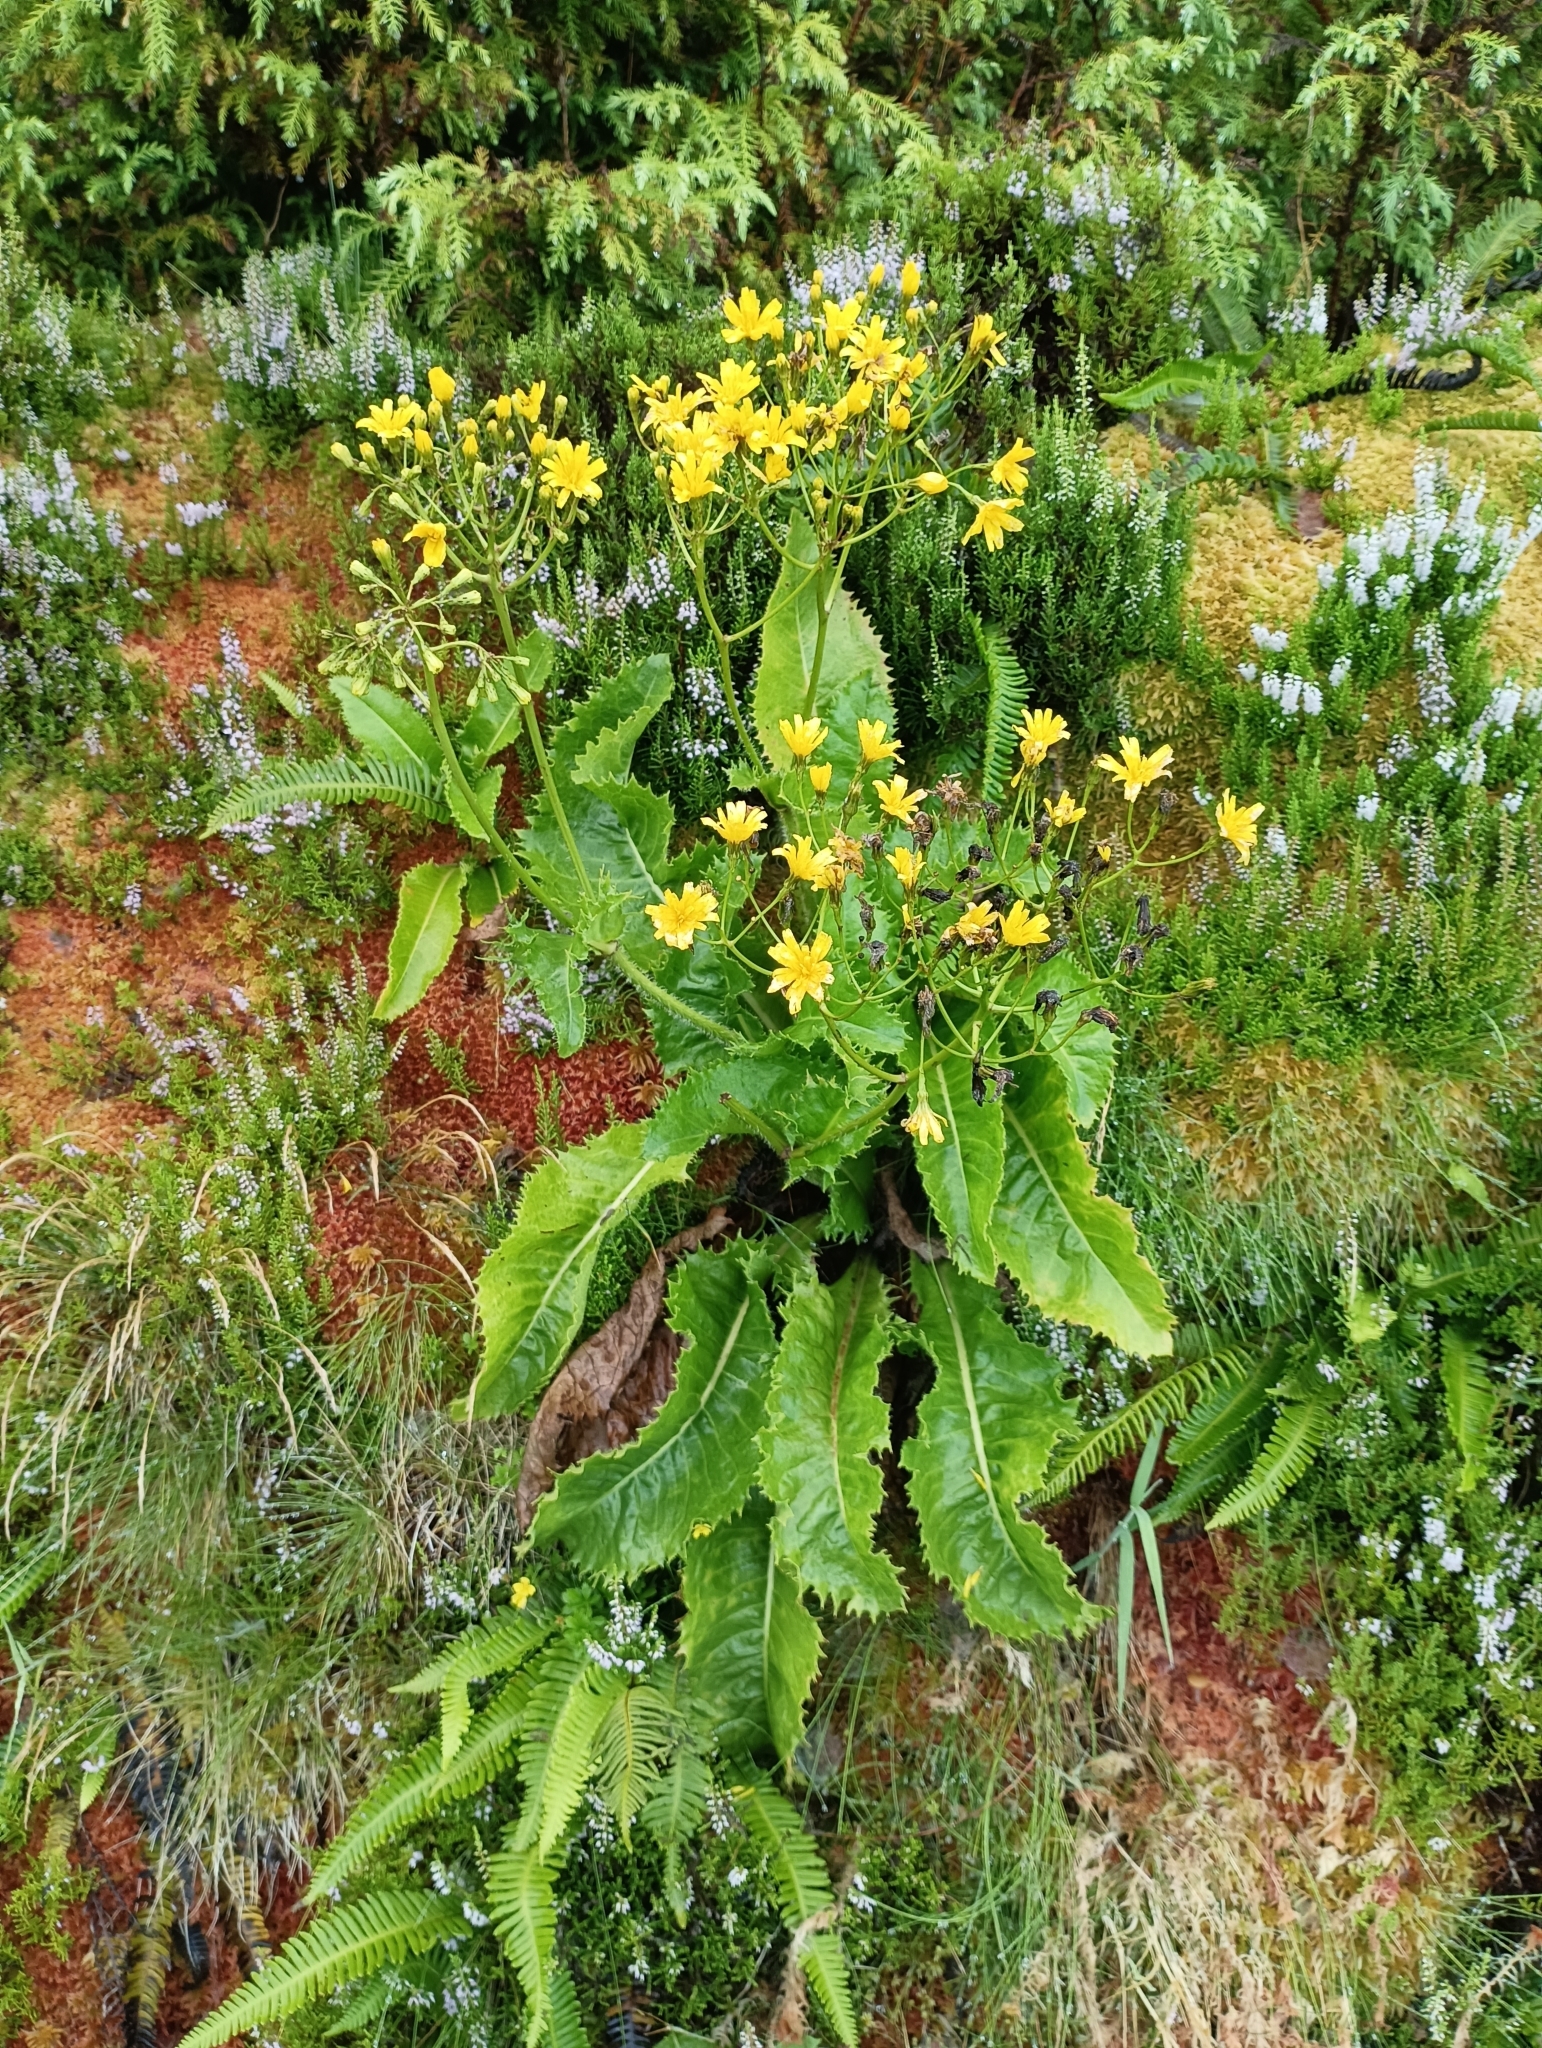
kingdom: Plantae
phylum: Tracheophyta
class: Magnoliopsida
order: Asterales
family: Asteraceae
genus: Leontodon
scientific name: Leontodon rigens
